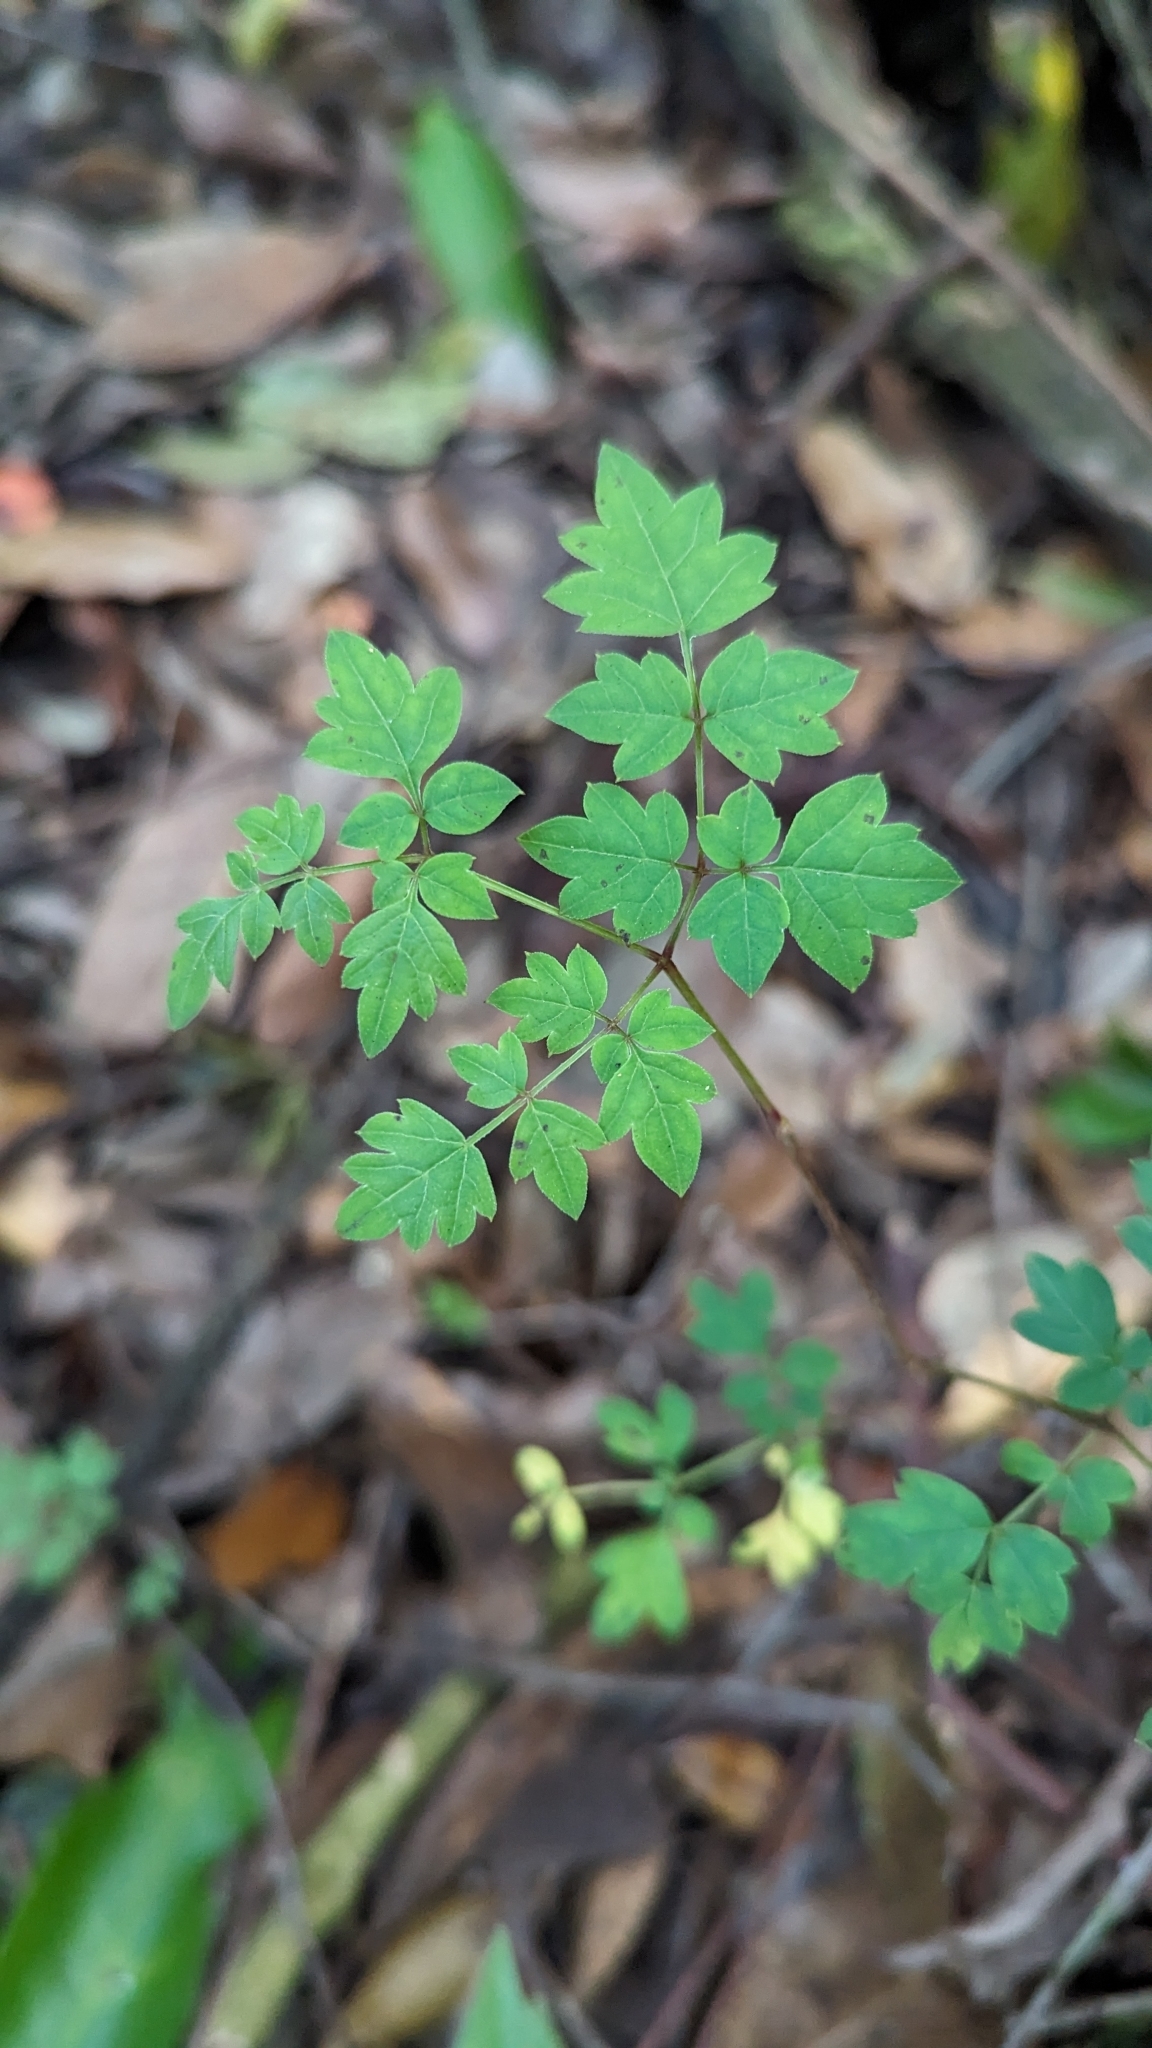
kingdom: Plantae
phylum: Tracheophyta
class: Magnoliopsida
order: Vitales
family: Vitaceae
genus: Nekemias
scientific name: Nekemias arborea
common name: Peppervine
